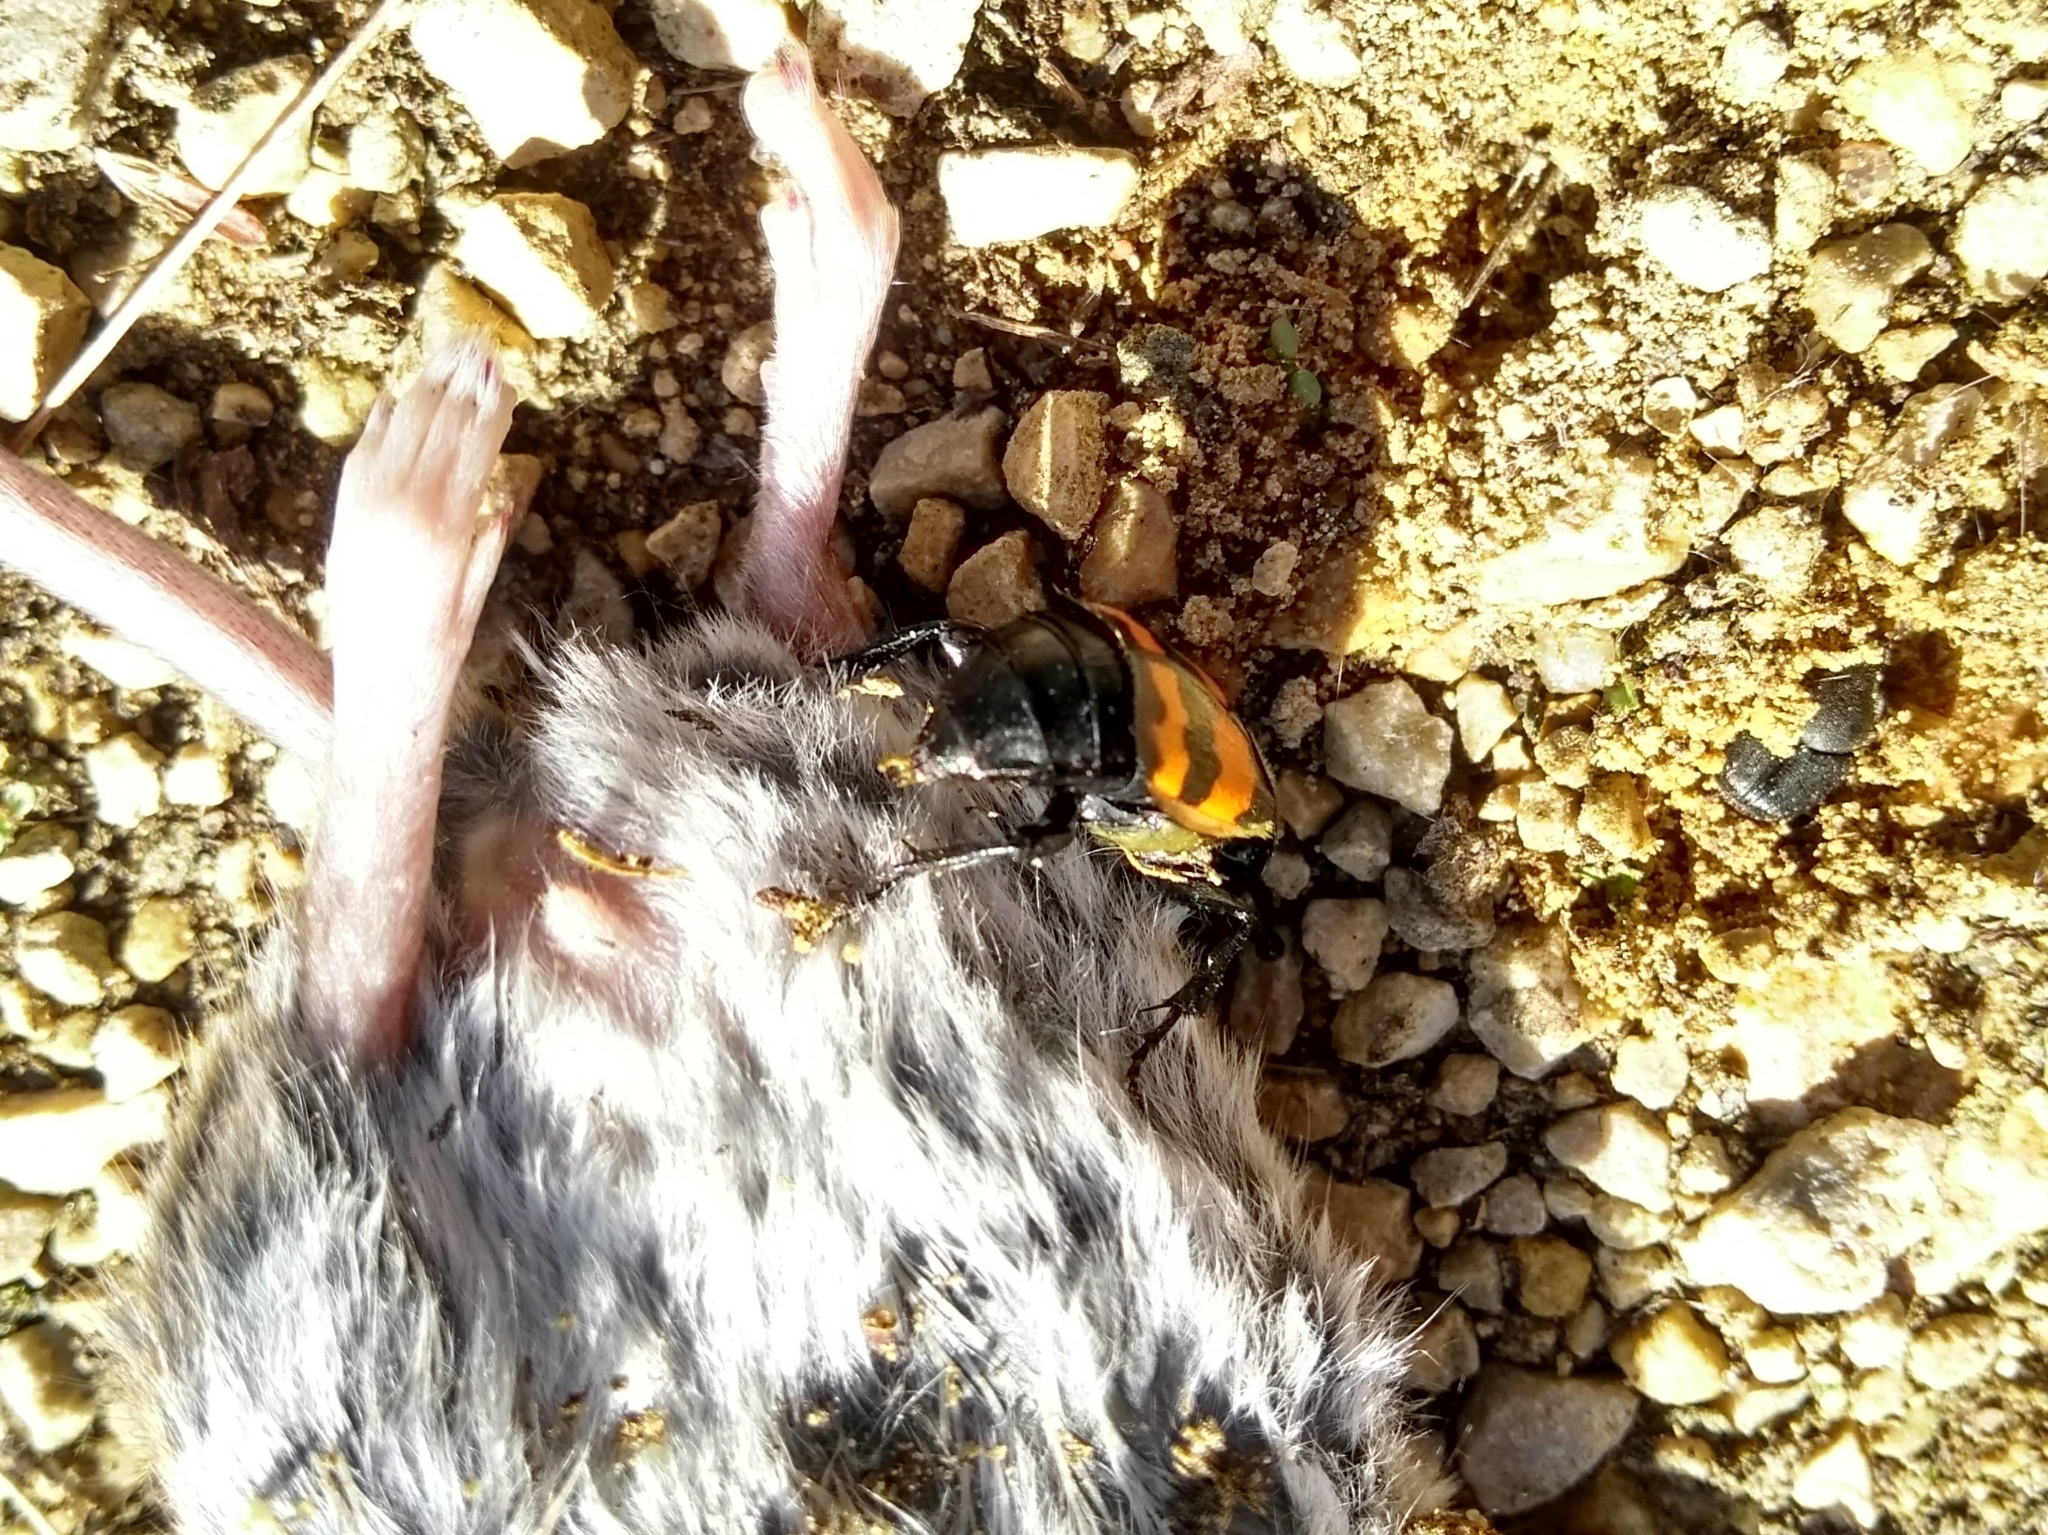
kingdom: Animalia
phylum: Arthropoda
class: Insecta
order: Coleoptera
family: Staphylinidae
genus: Nicrophorus
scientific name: Nicrophorus tomentosus
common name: Tomentose burying beetle
